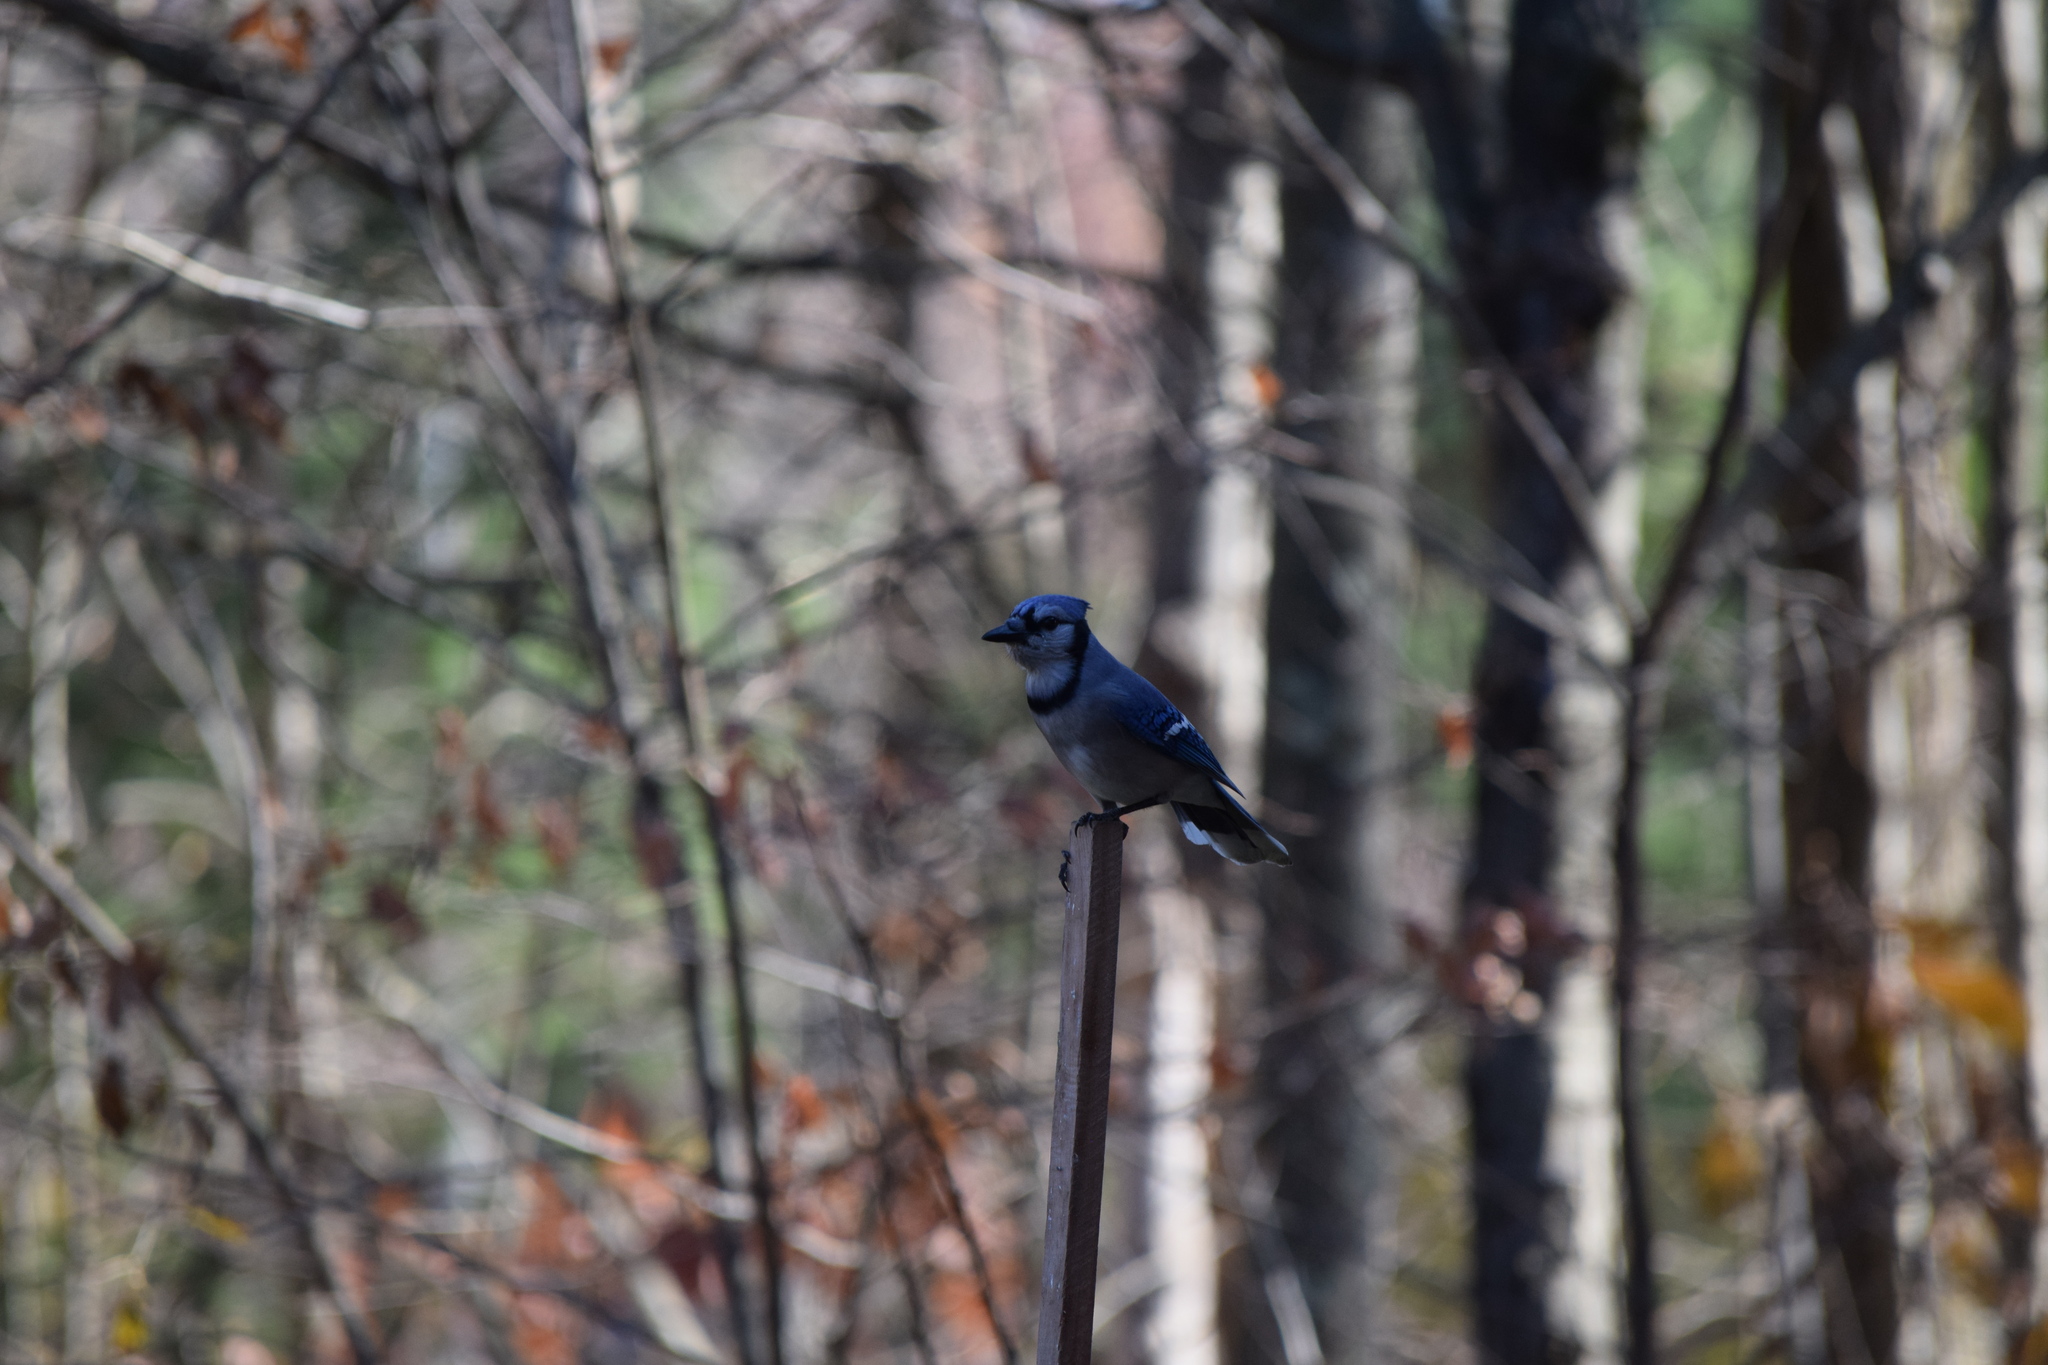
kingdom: Animalia
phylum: Chordata
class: Aves
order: Passeriformes
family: Corvidae
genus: Cyanocitta
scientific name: Cyanocitta cristata
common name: Blue jay
